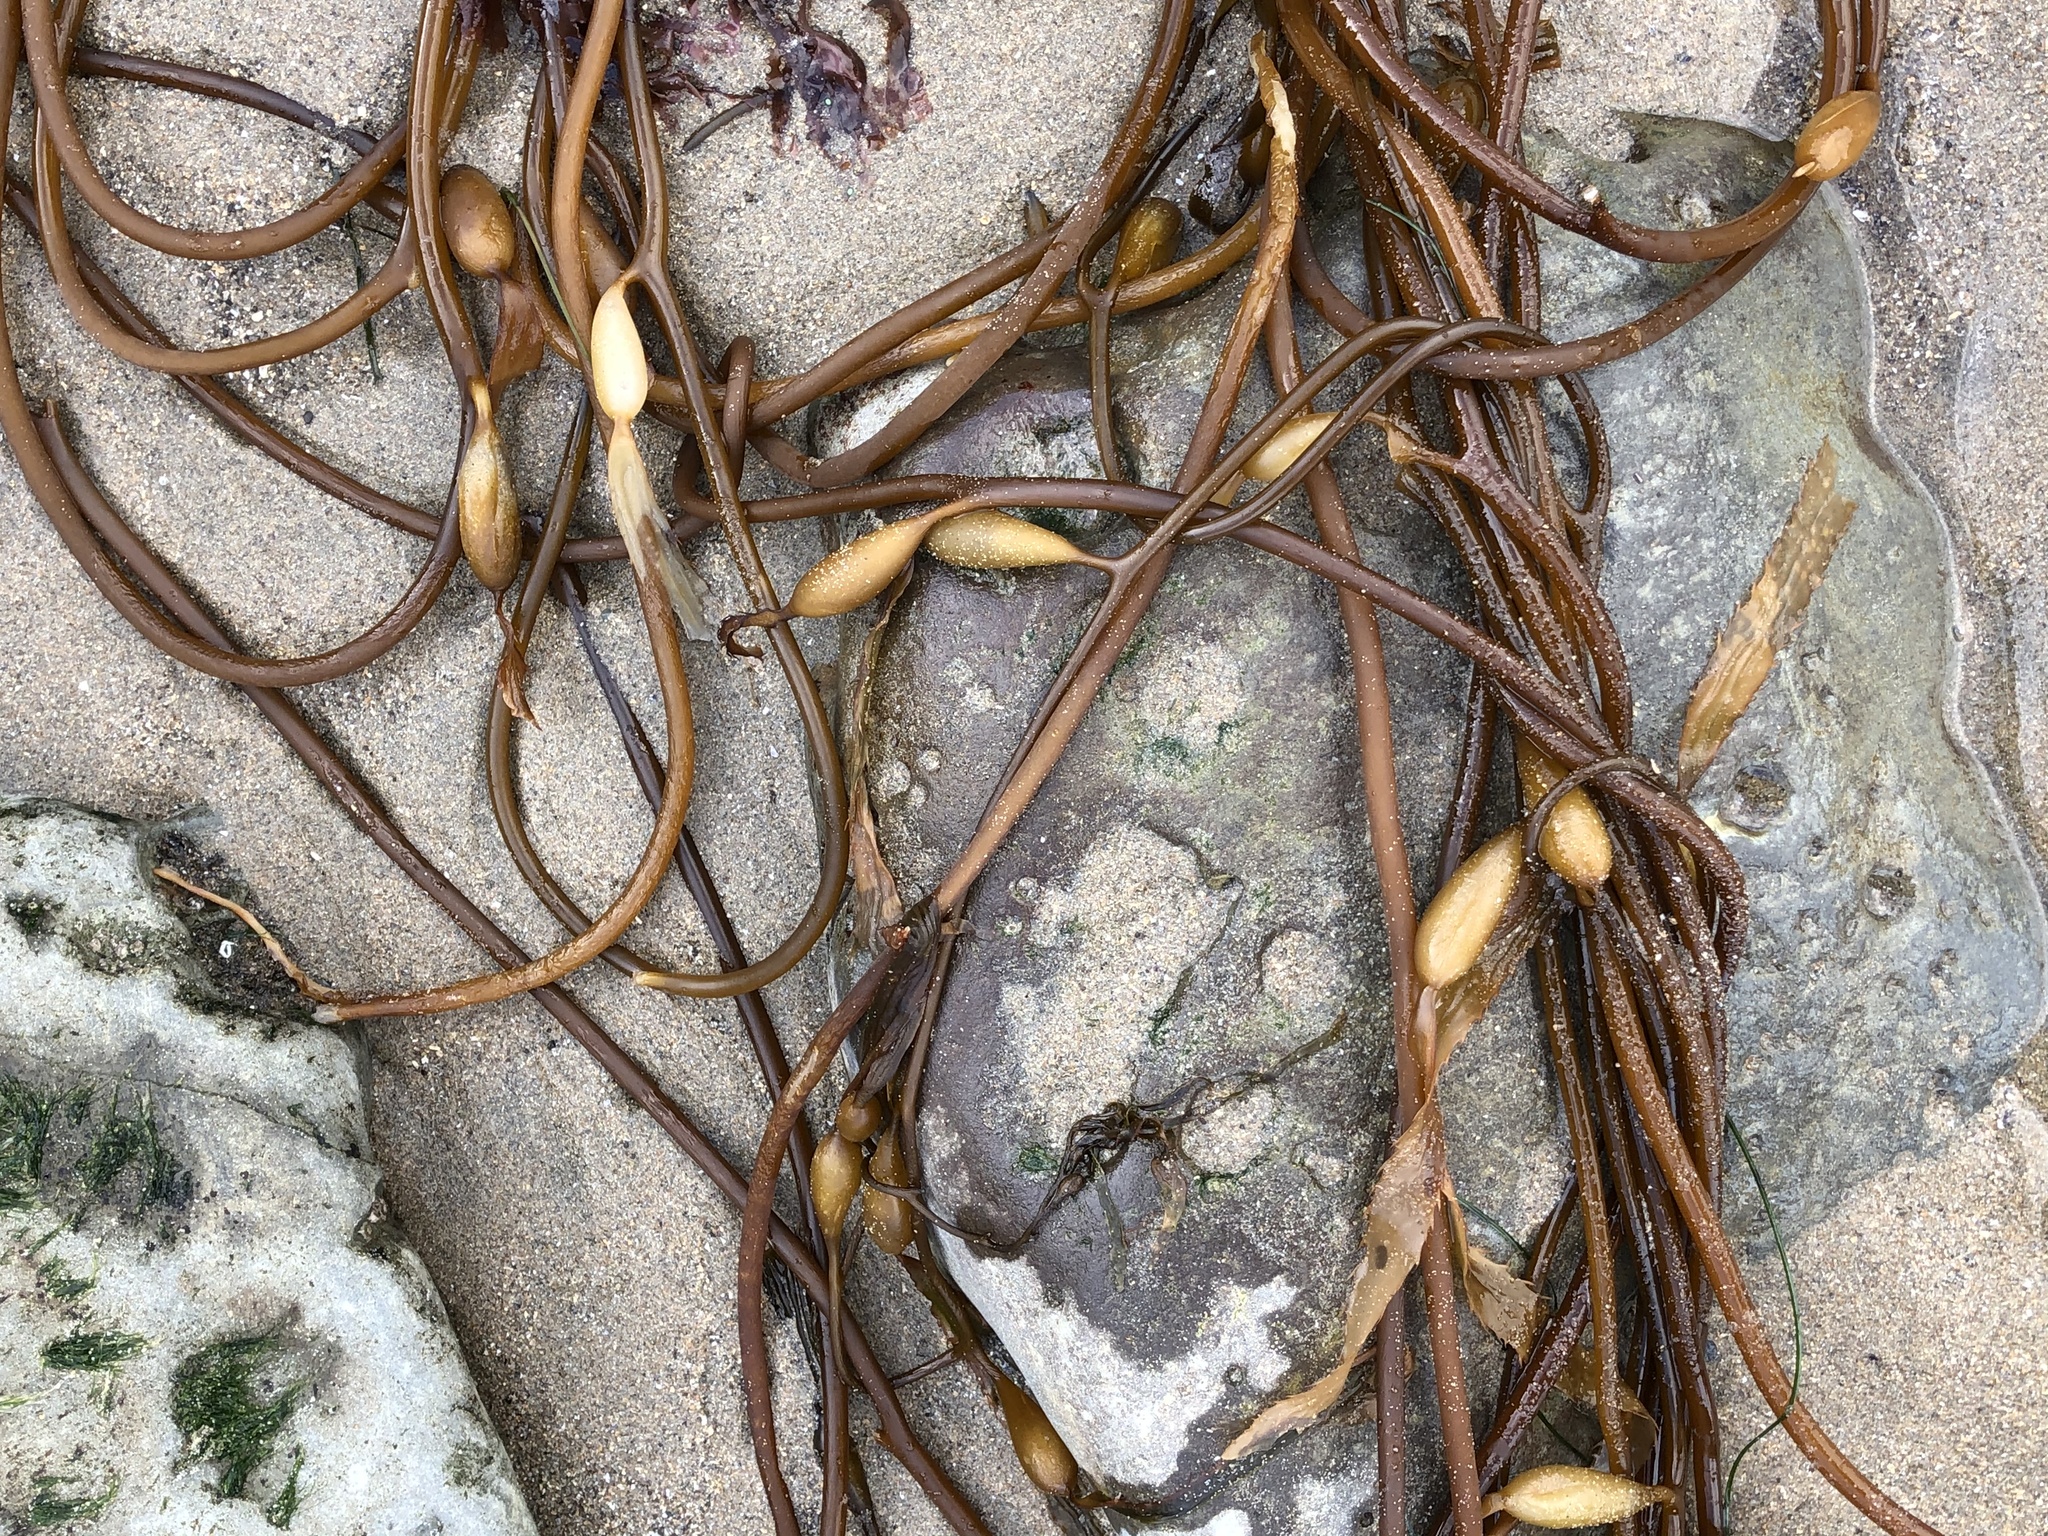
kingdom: Chromista
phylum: Ochrophyta
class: Phaeophyceae
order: Laminariales
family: Laminariaceae
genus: Macrocystis
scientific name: Macrocystis pyrifera
